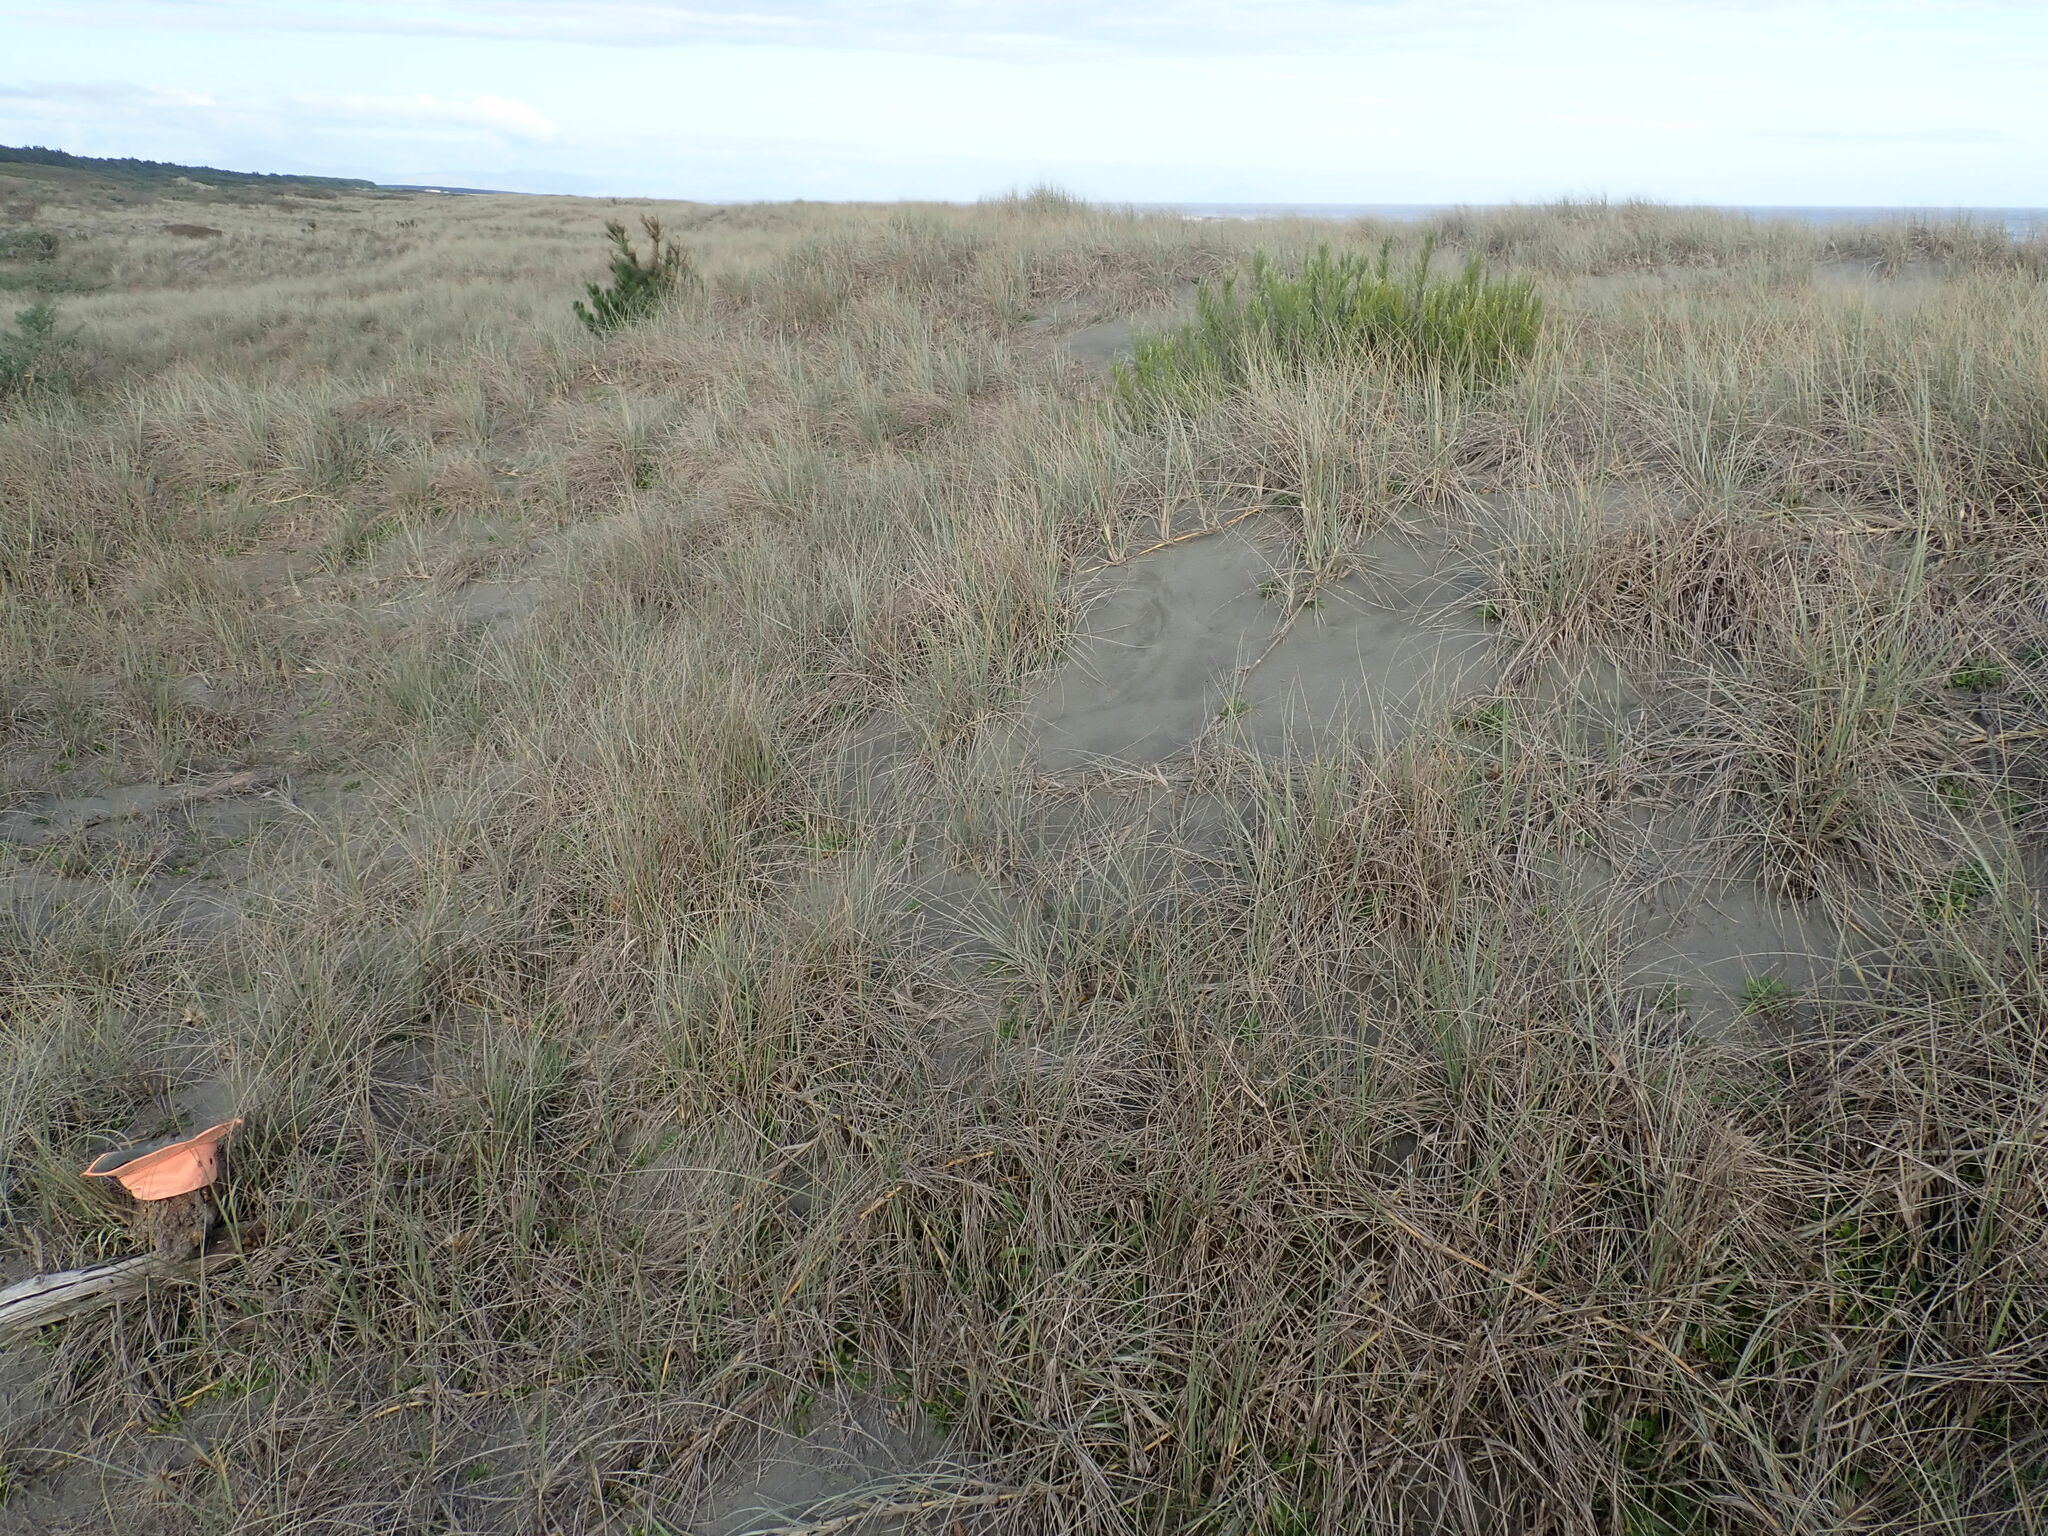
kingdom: Animalia
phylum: Arthropoda
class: Malacostraca
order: Isopoda
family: Porcellionidae
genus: Porcellio
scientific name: Porcellio scaber
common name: Common rough woodlouse
